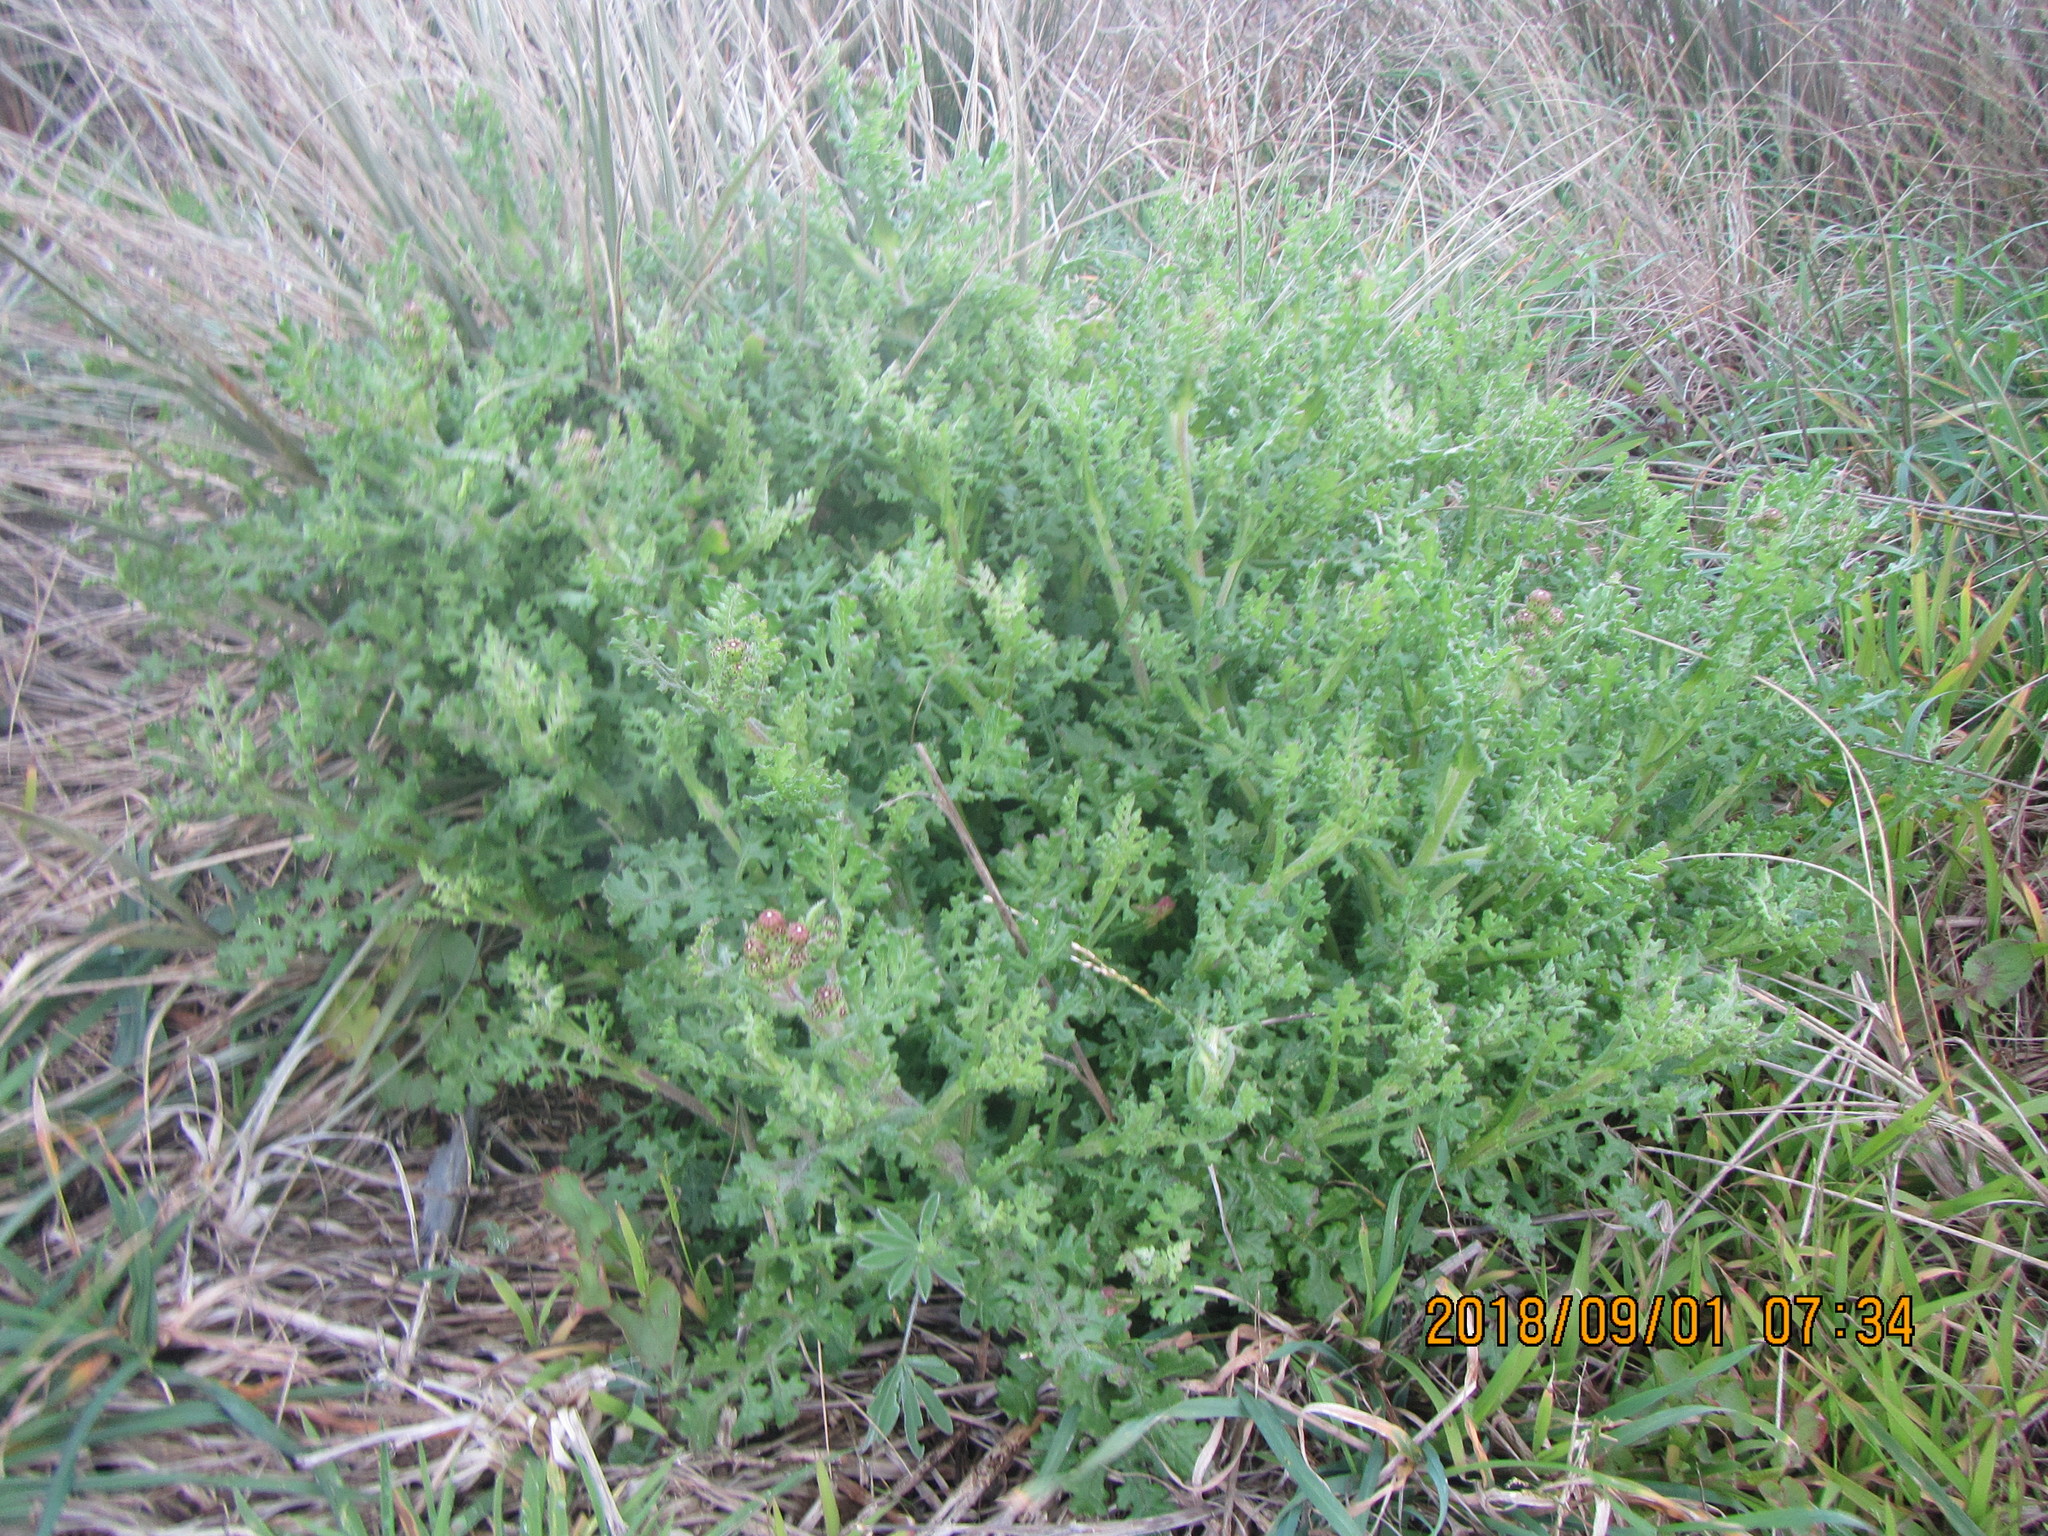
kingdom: Plantae
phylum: Tracheophyta
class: Magnoliopsida
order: Asterales
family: Asteraceae
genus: Senecio
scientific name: Senecio elegans
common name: Purple groundsel
